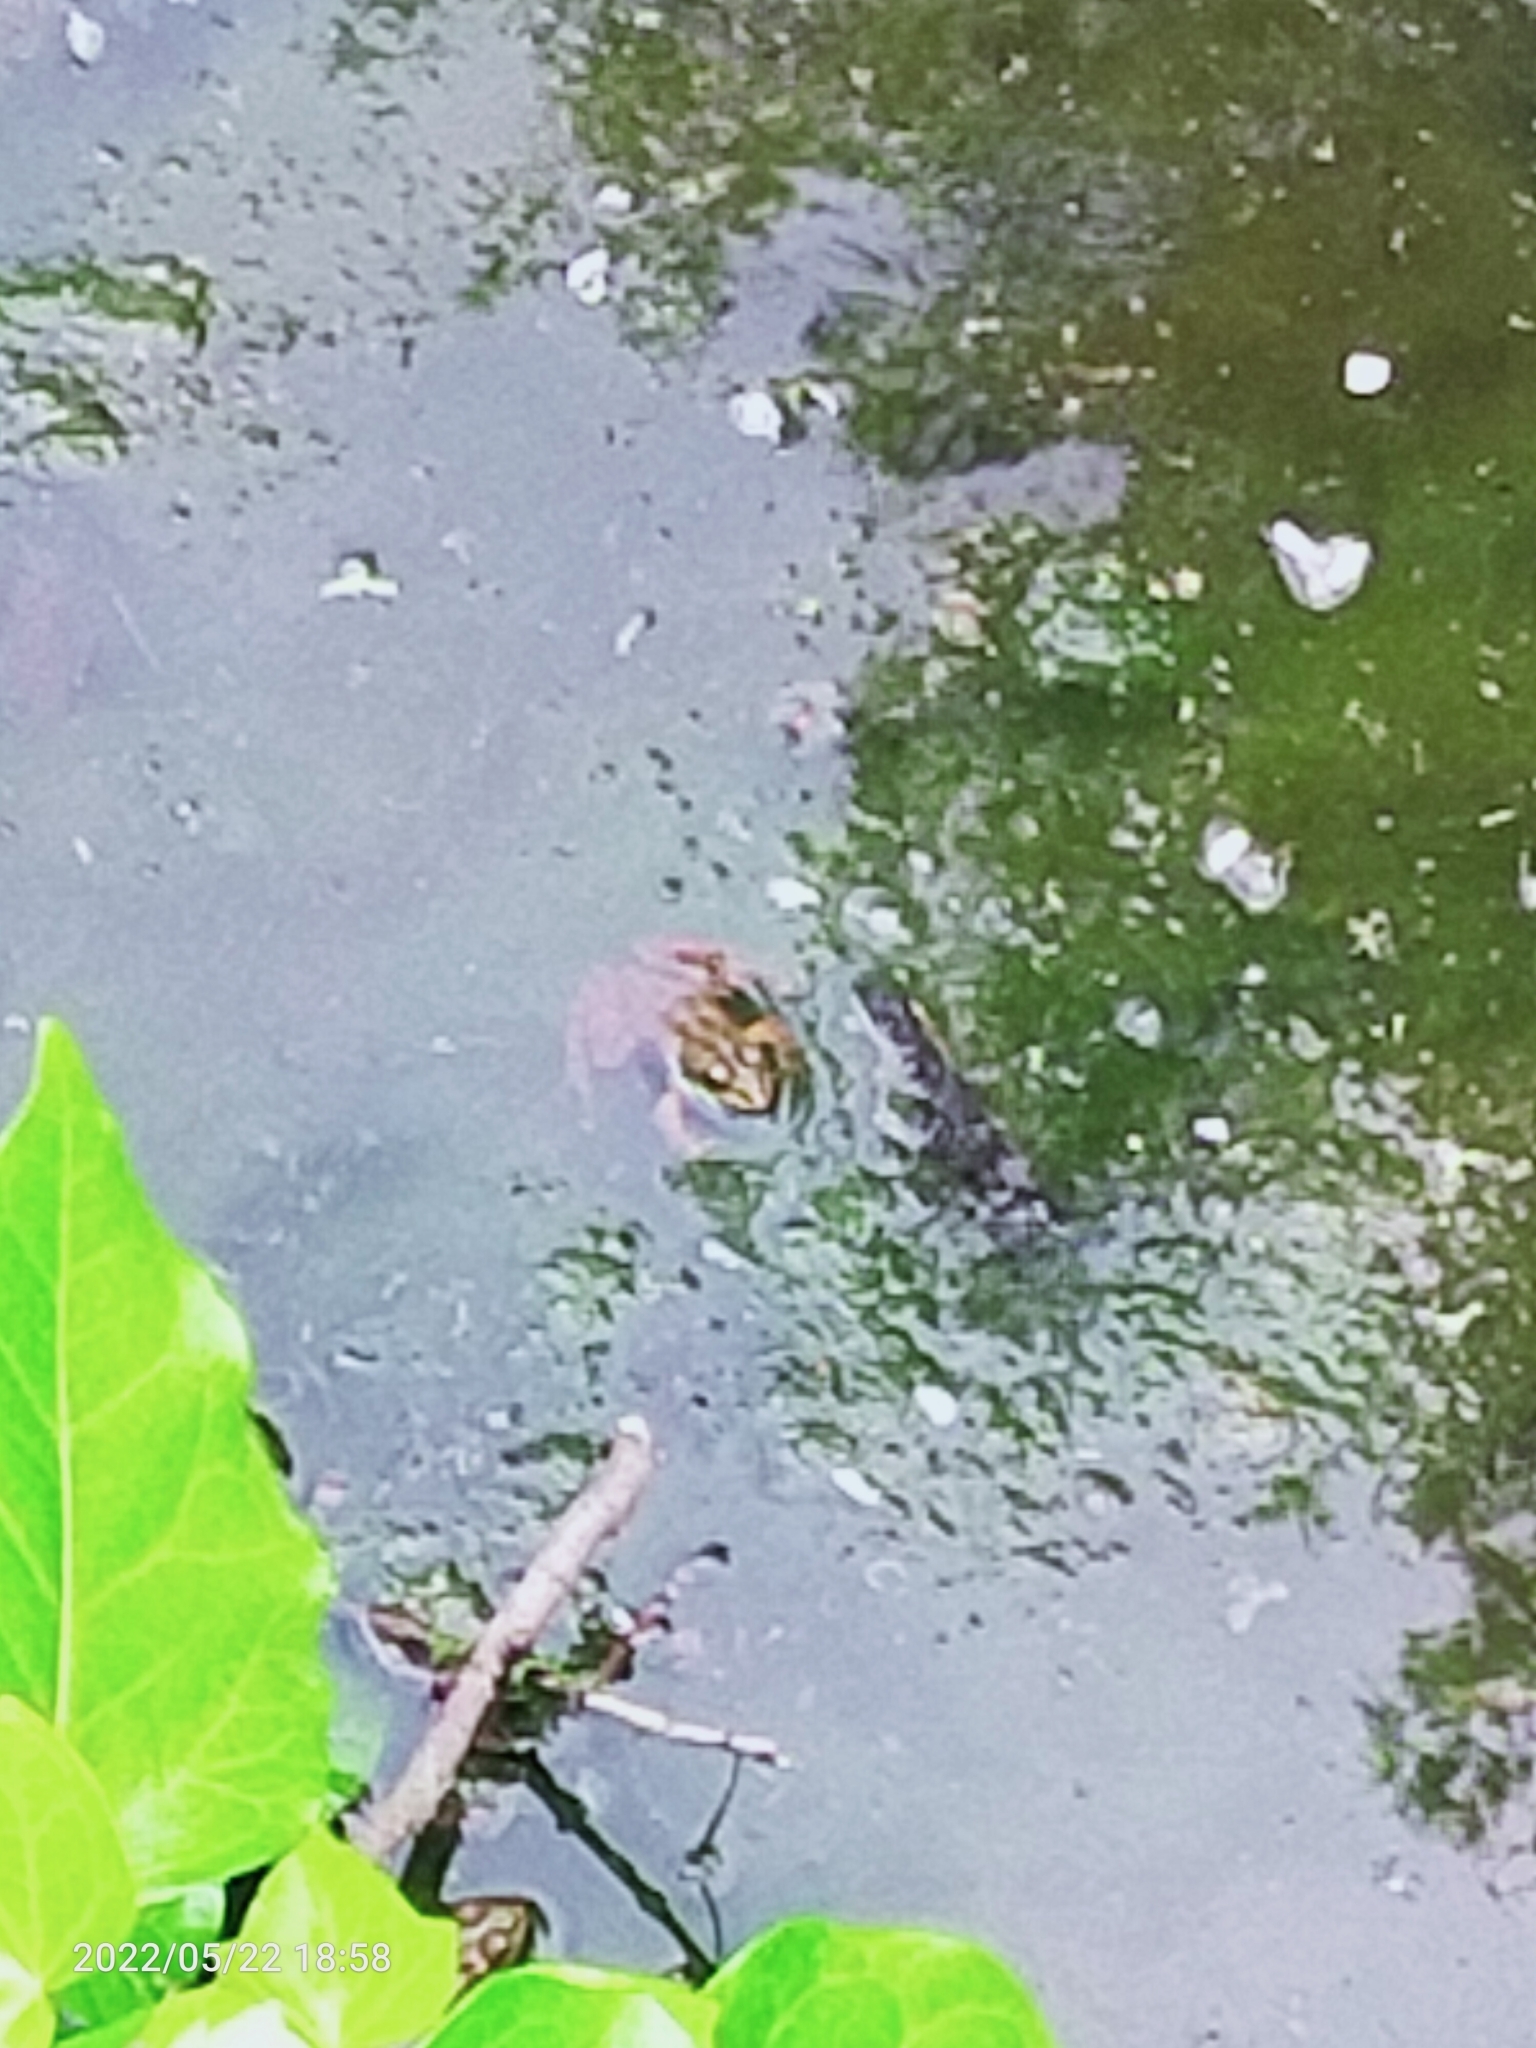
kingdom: Animalia
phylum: Chordata
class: Amphibia
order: Anura
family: Ranidae
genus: Pelophylax
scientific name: Pelophylax
